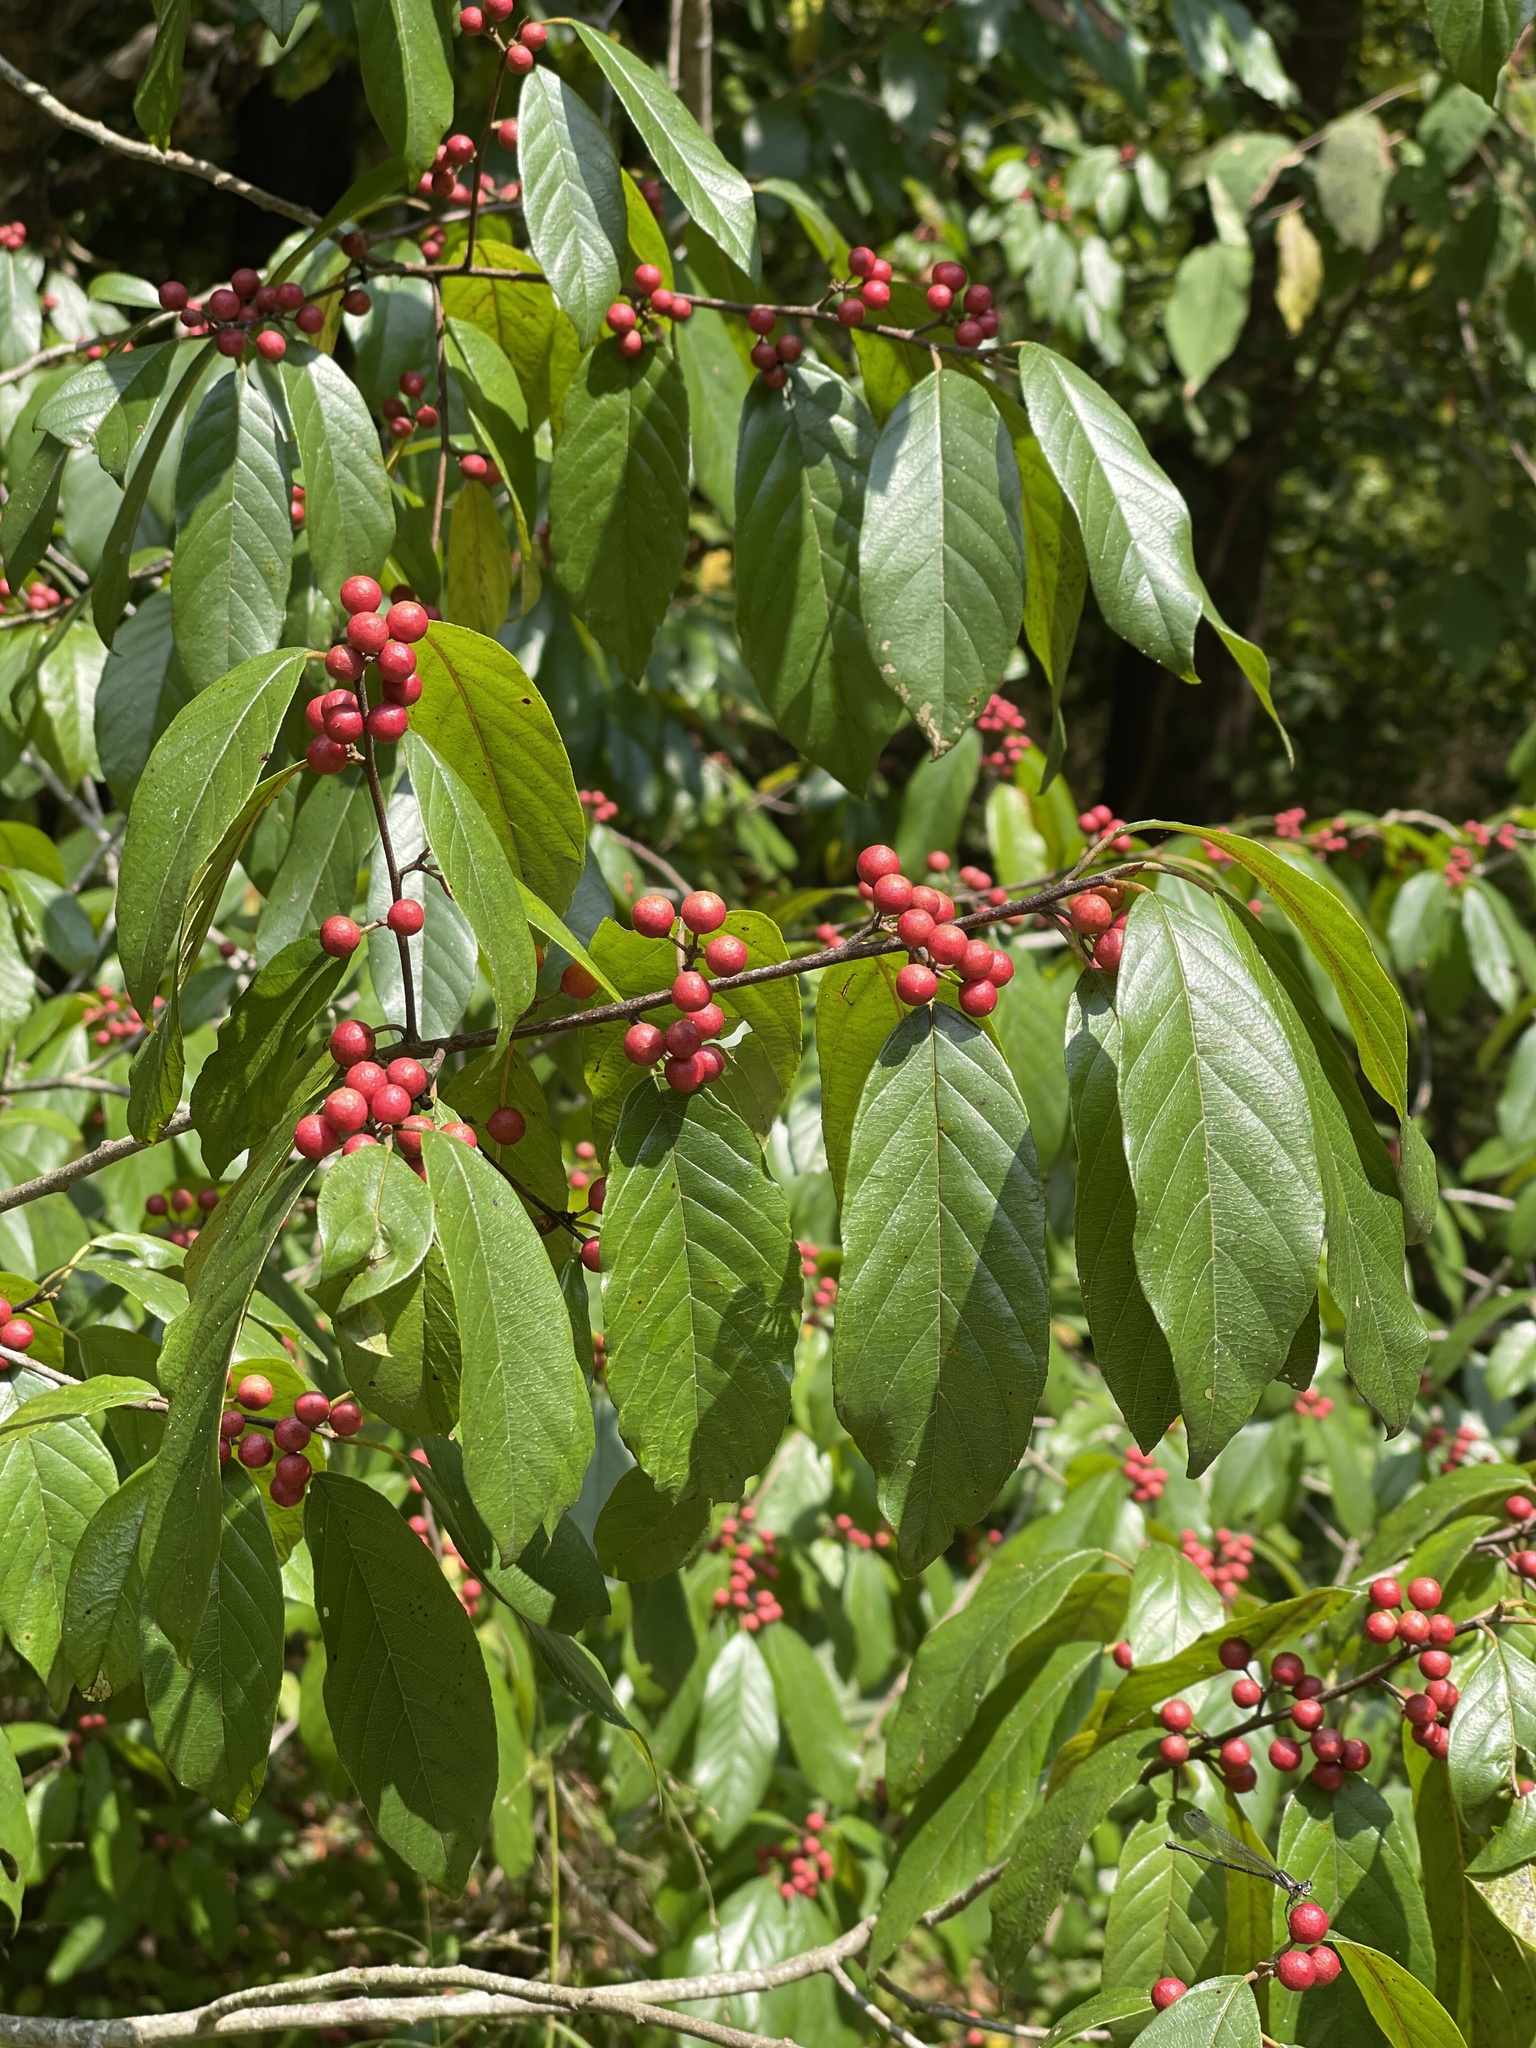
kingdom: Plantae
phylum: Tracheophyta
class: Magnoliopsida
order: Rosales
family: Rhamnaceae
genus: Frangula
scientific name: Frangula caroliniana
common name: Carolina buckthorn
